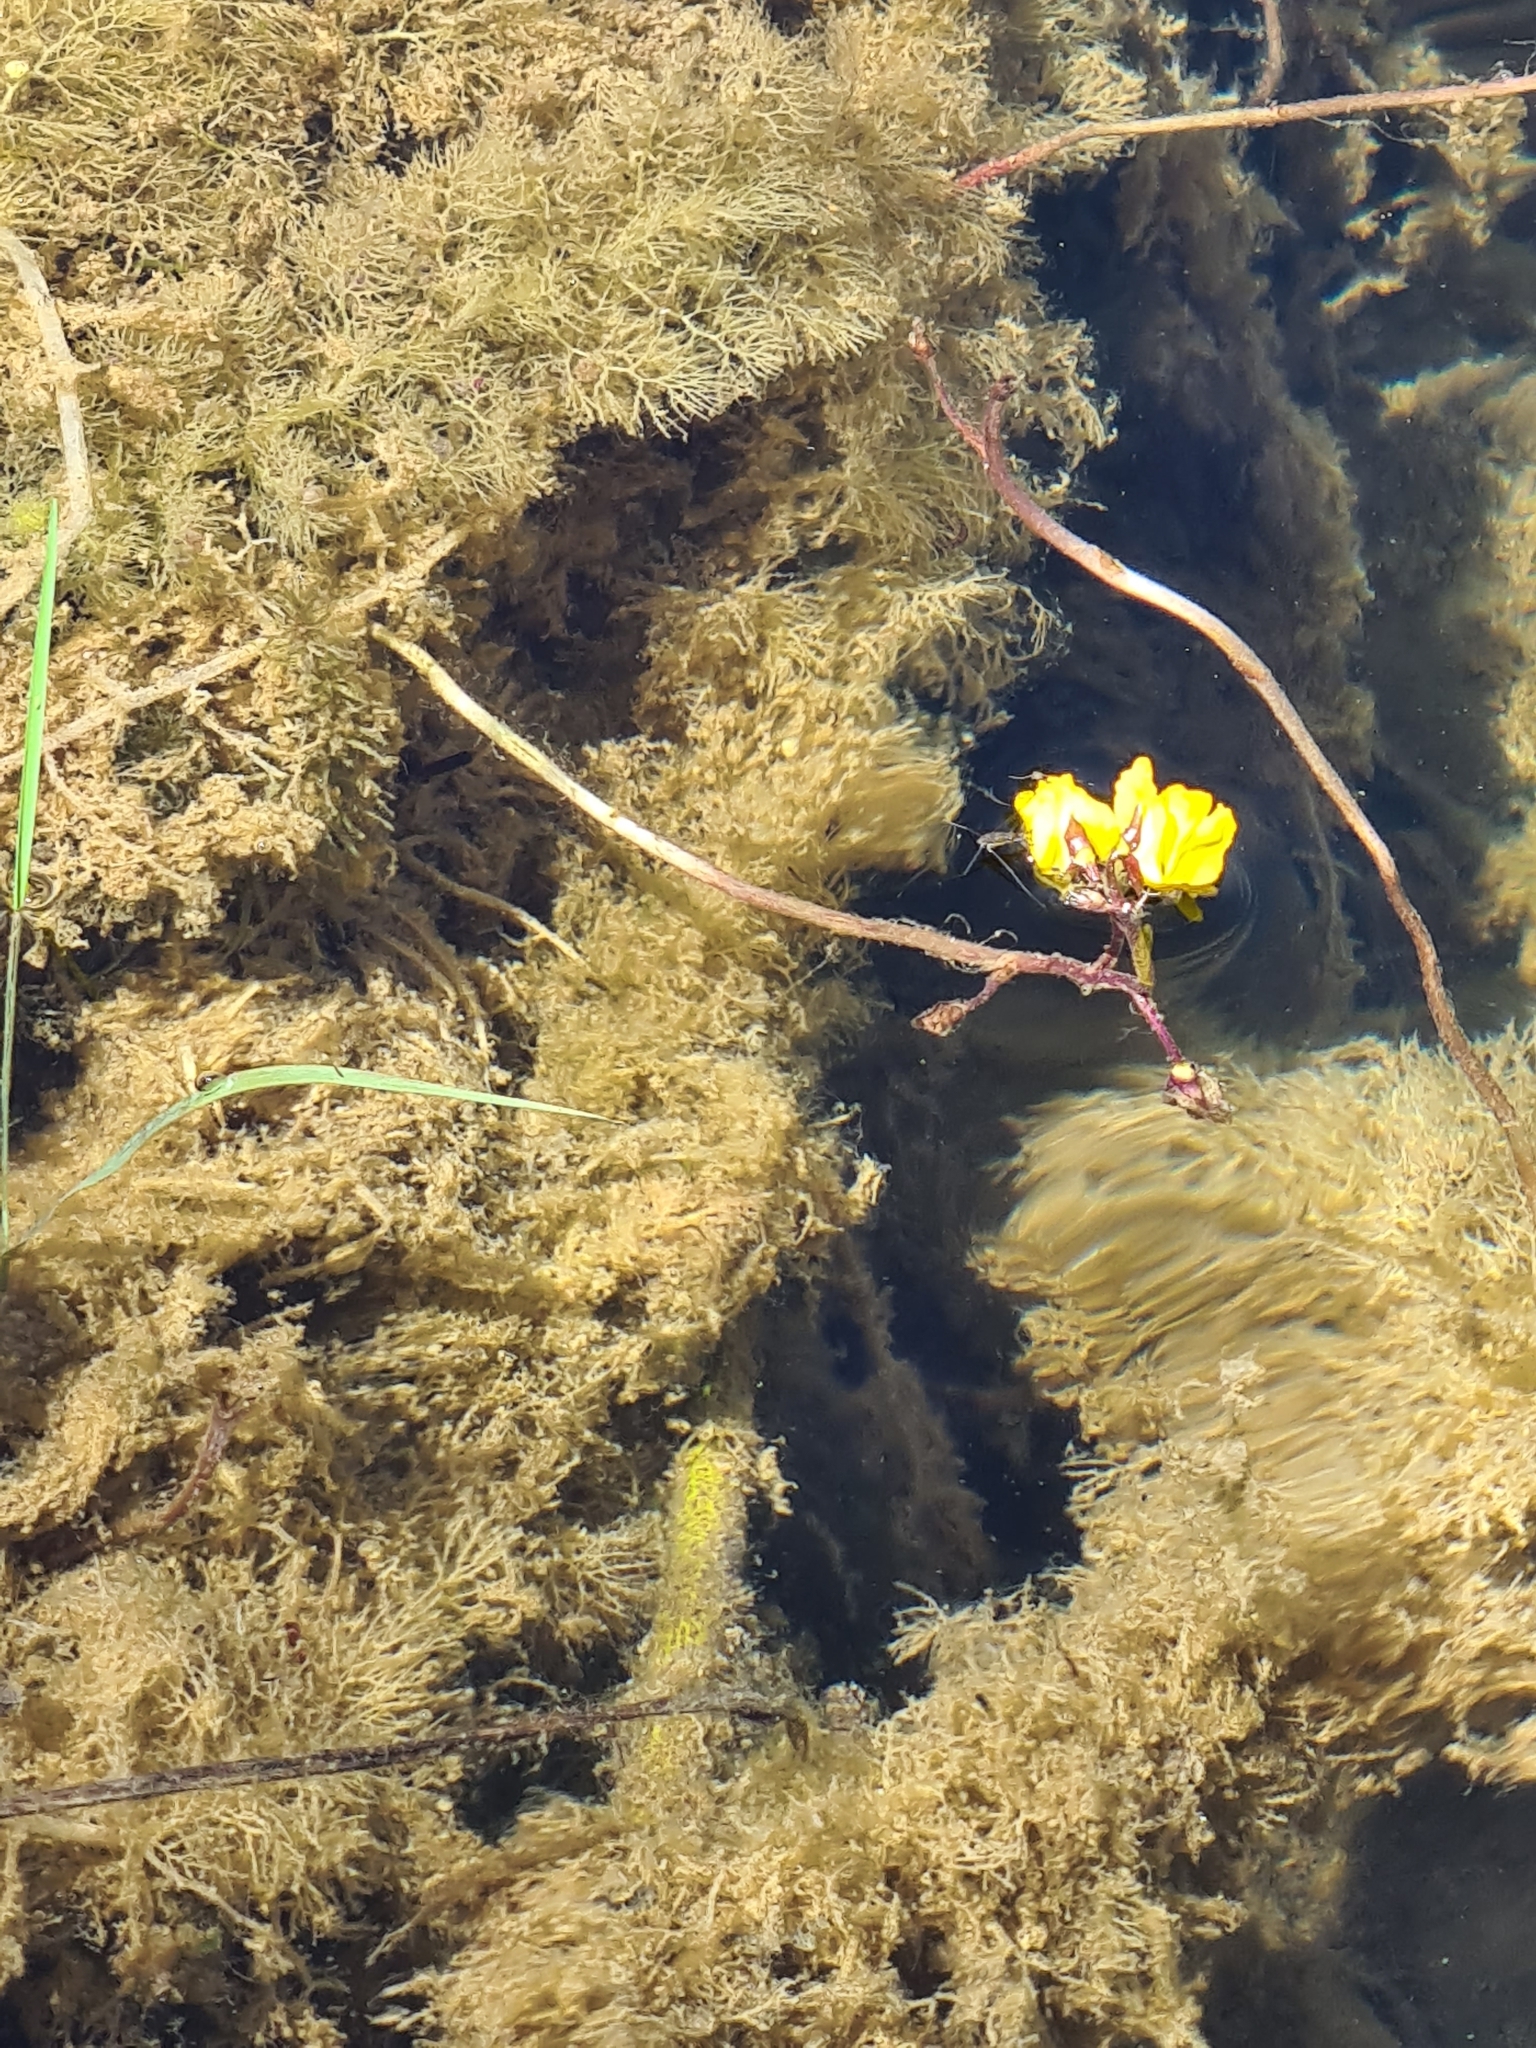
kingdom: Plantae
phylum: Tracheophyta
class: Magnoliopsida
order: Lamiales
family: Lentibulariaceae
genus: Utricularia
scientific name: Utricularia vulgaris
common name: Greater bladderwort
